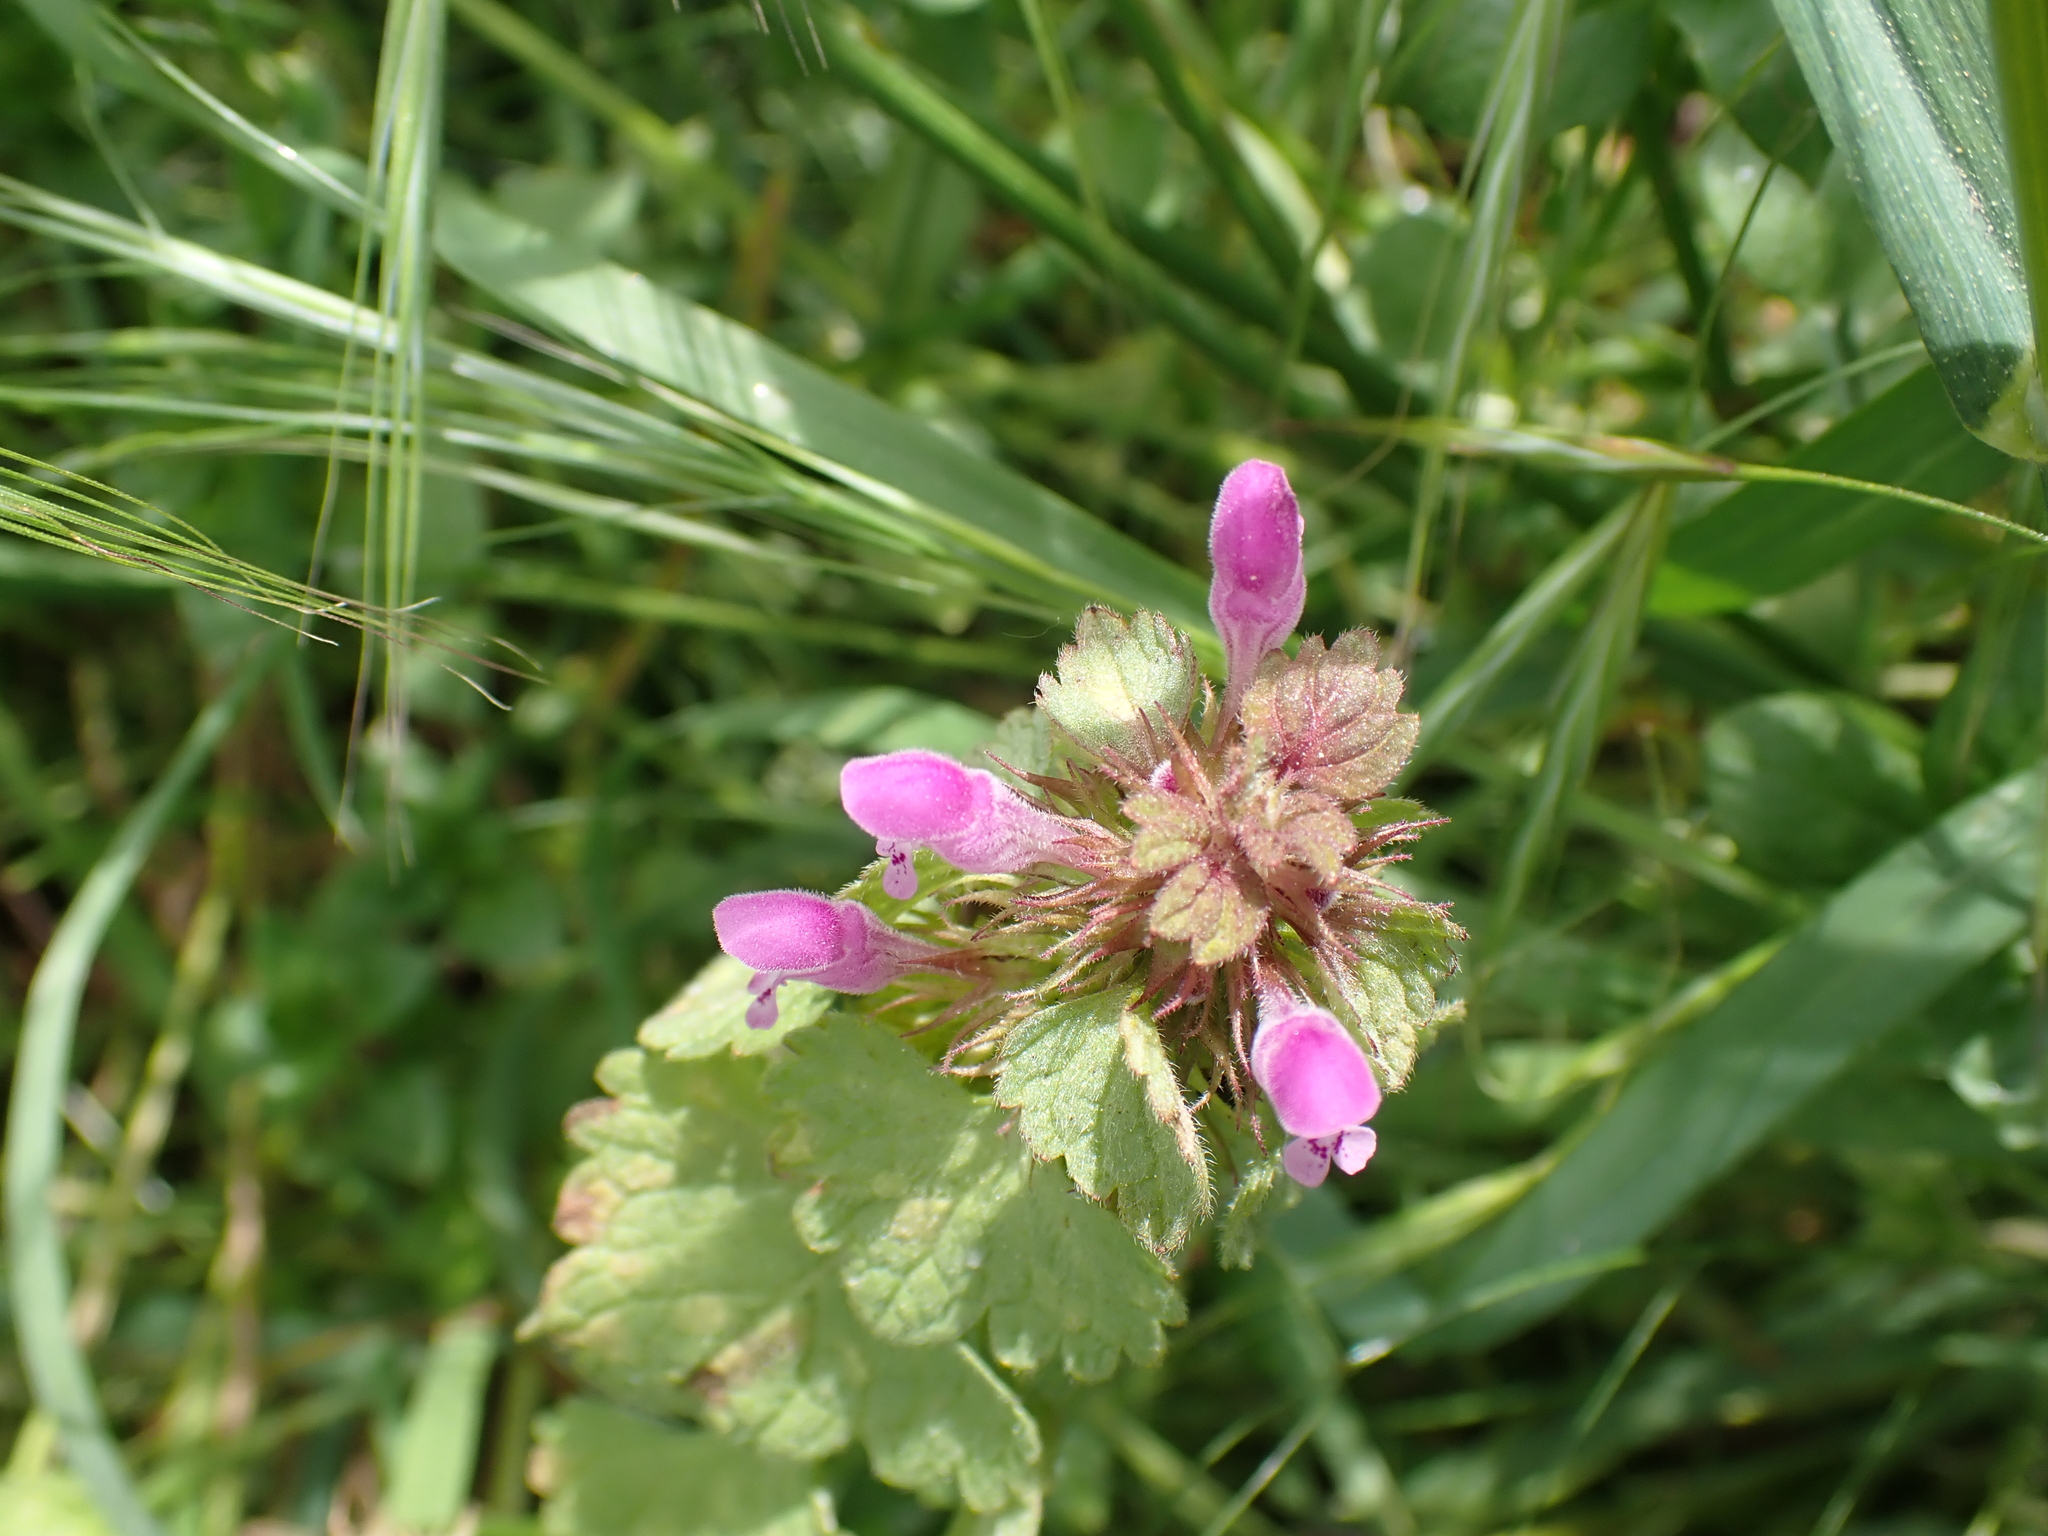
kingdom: Plantae
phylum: Tracheophyta
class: Magnoliopsida
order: Lamiales
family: Lamiaceae
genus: Lamium
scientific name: Lamium purpureum
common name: Red dead-nettle
